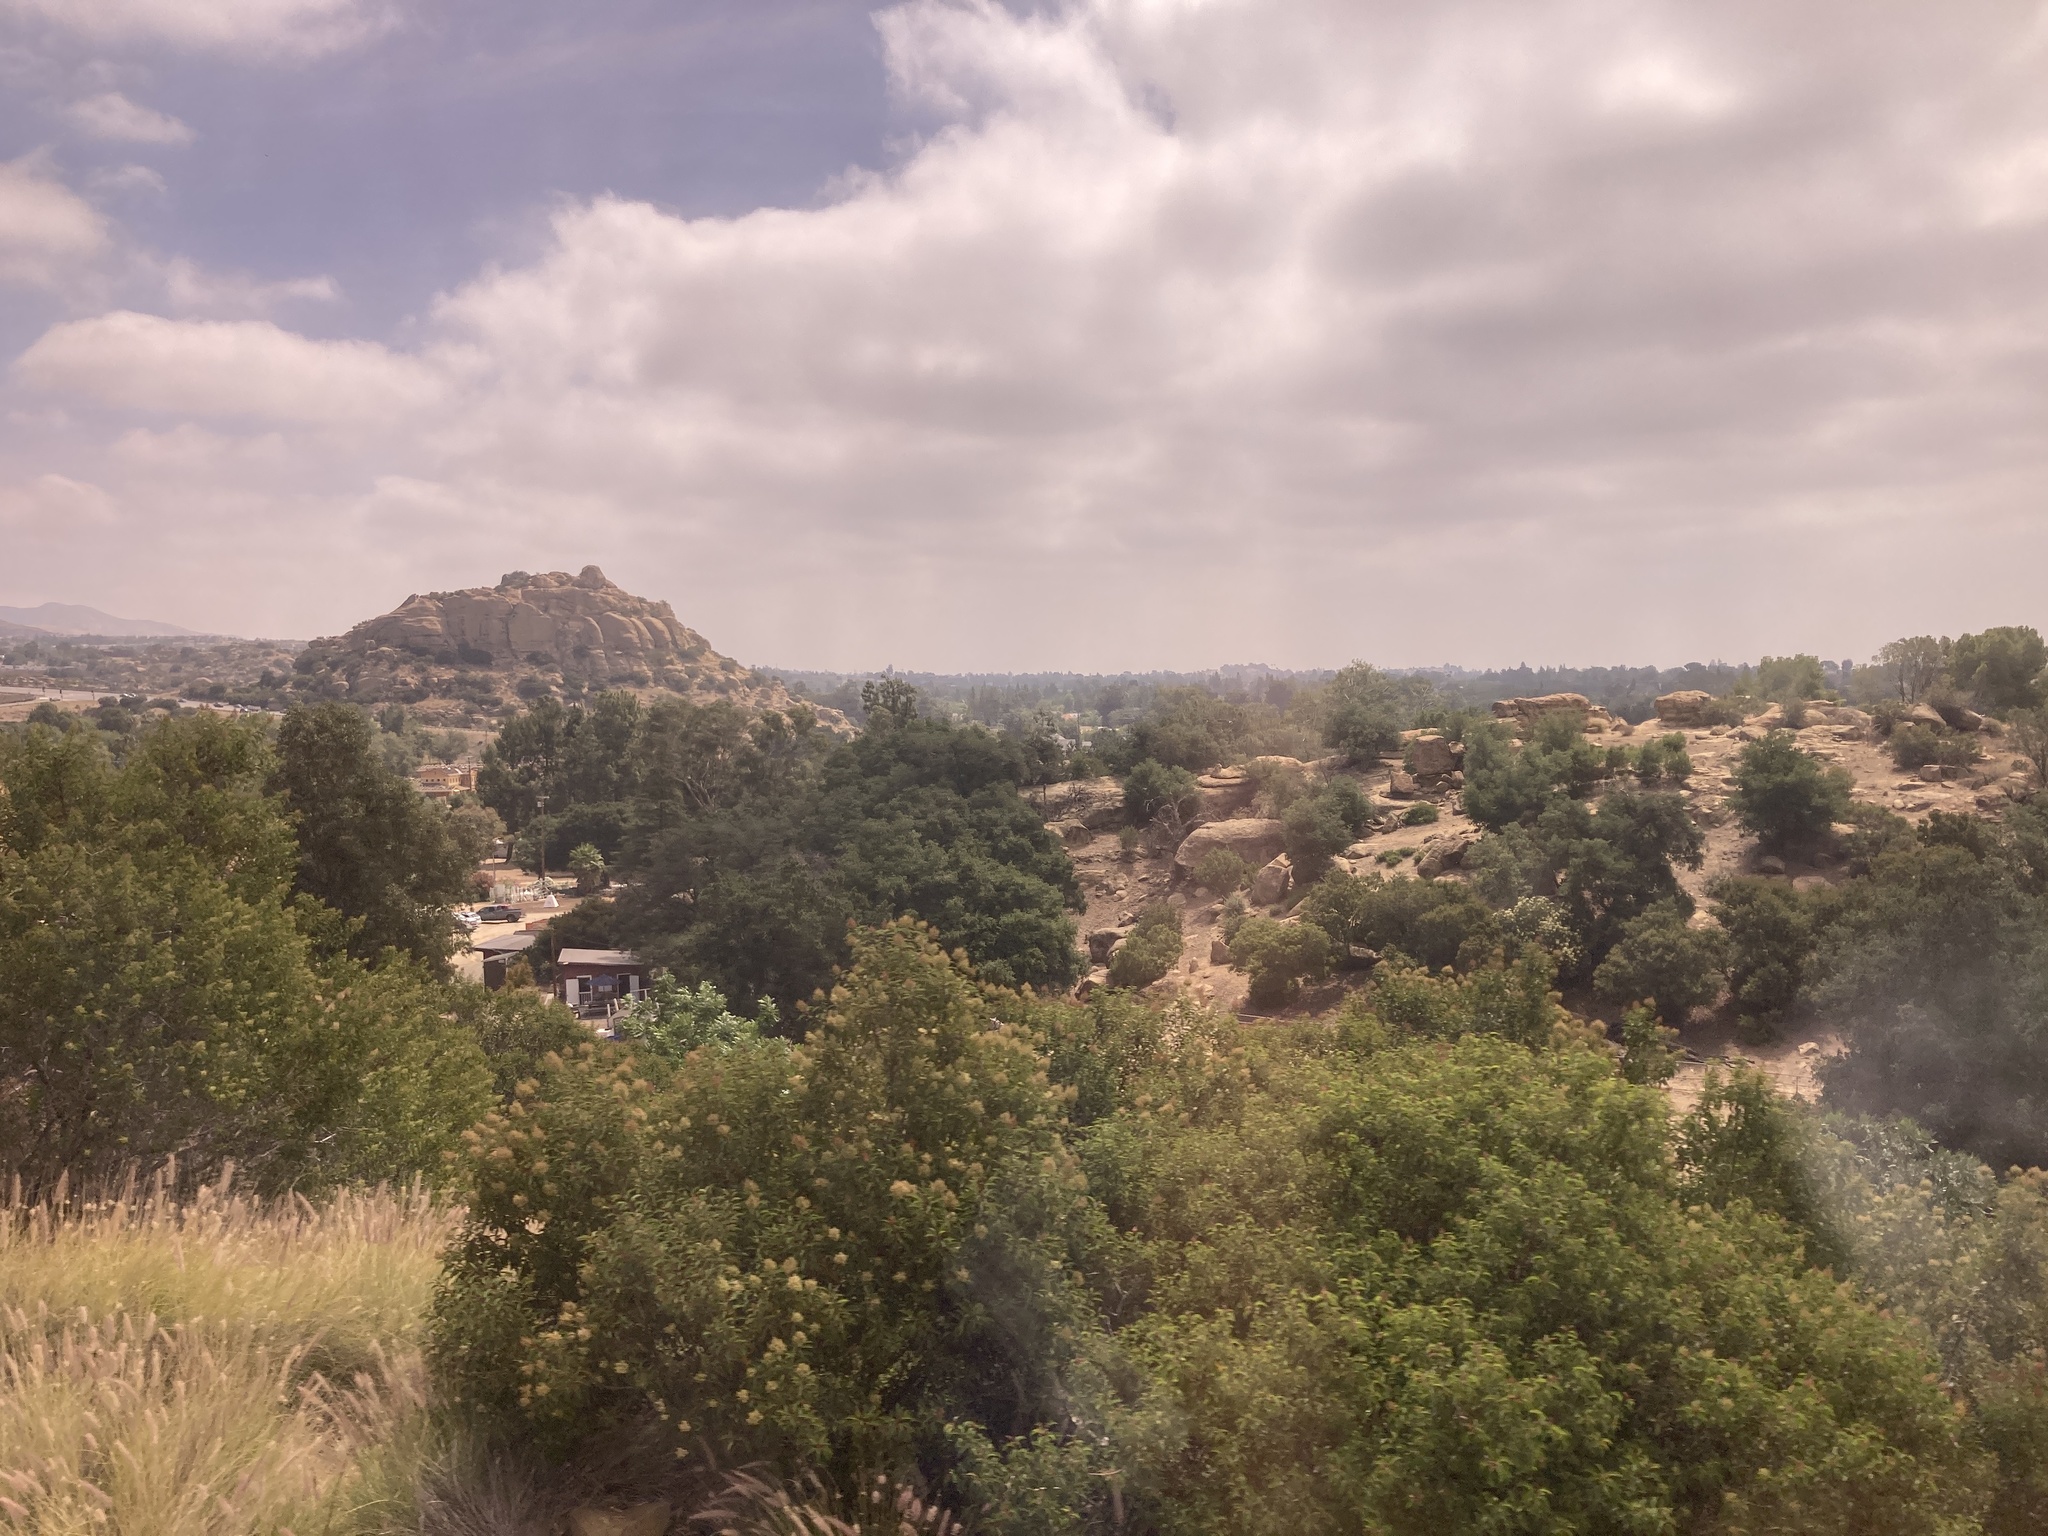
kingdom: Plantae
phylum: Tracheophyta
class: Magnoliopsida
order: Sapindales
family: Anacardiaceae
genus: Malosma
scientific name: Malosma laurina
